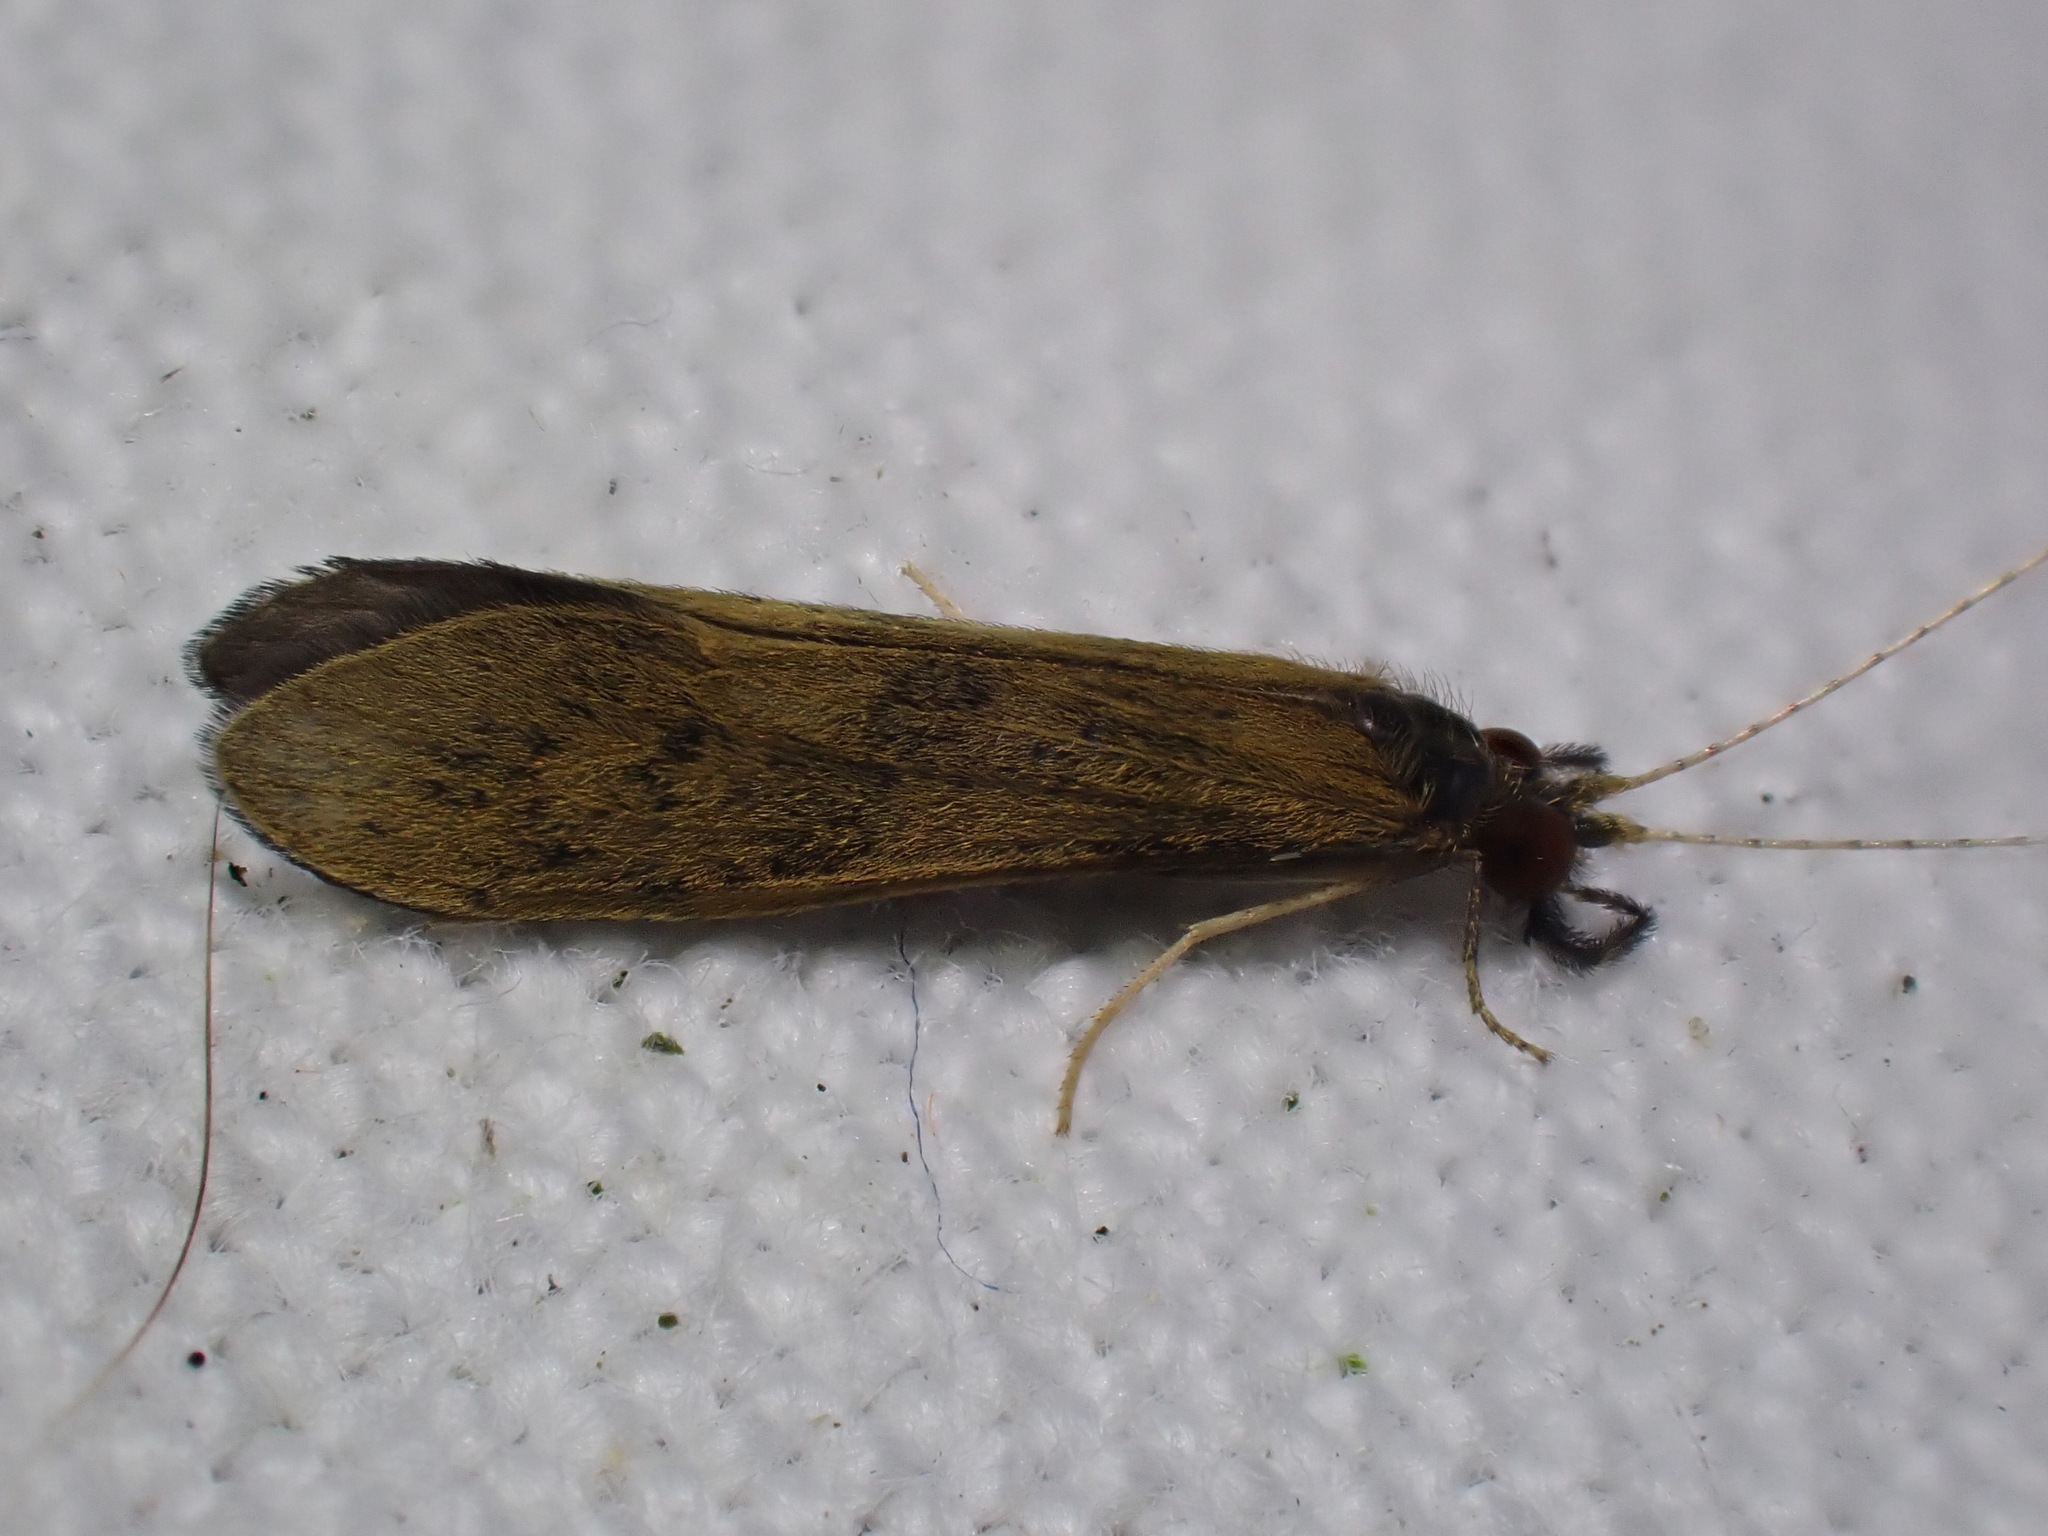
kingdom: Animalia
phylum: Arthropoda
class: Insecta
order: Trichoptera
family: Leptoceridae
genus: Mystacides
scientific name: Mystacides longicornis
